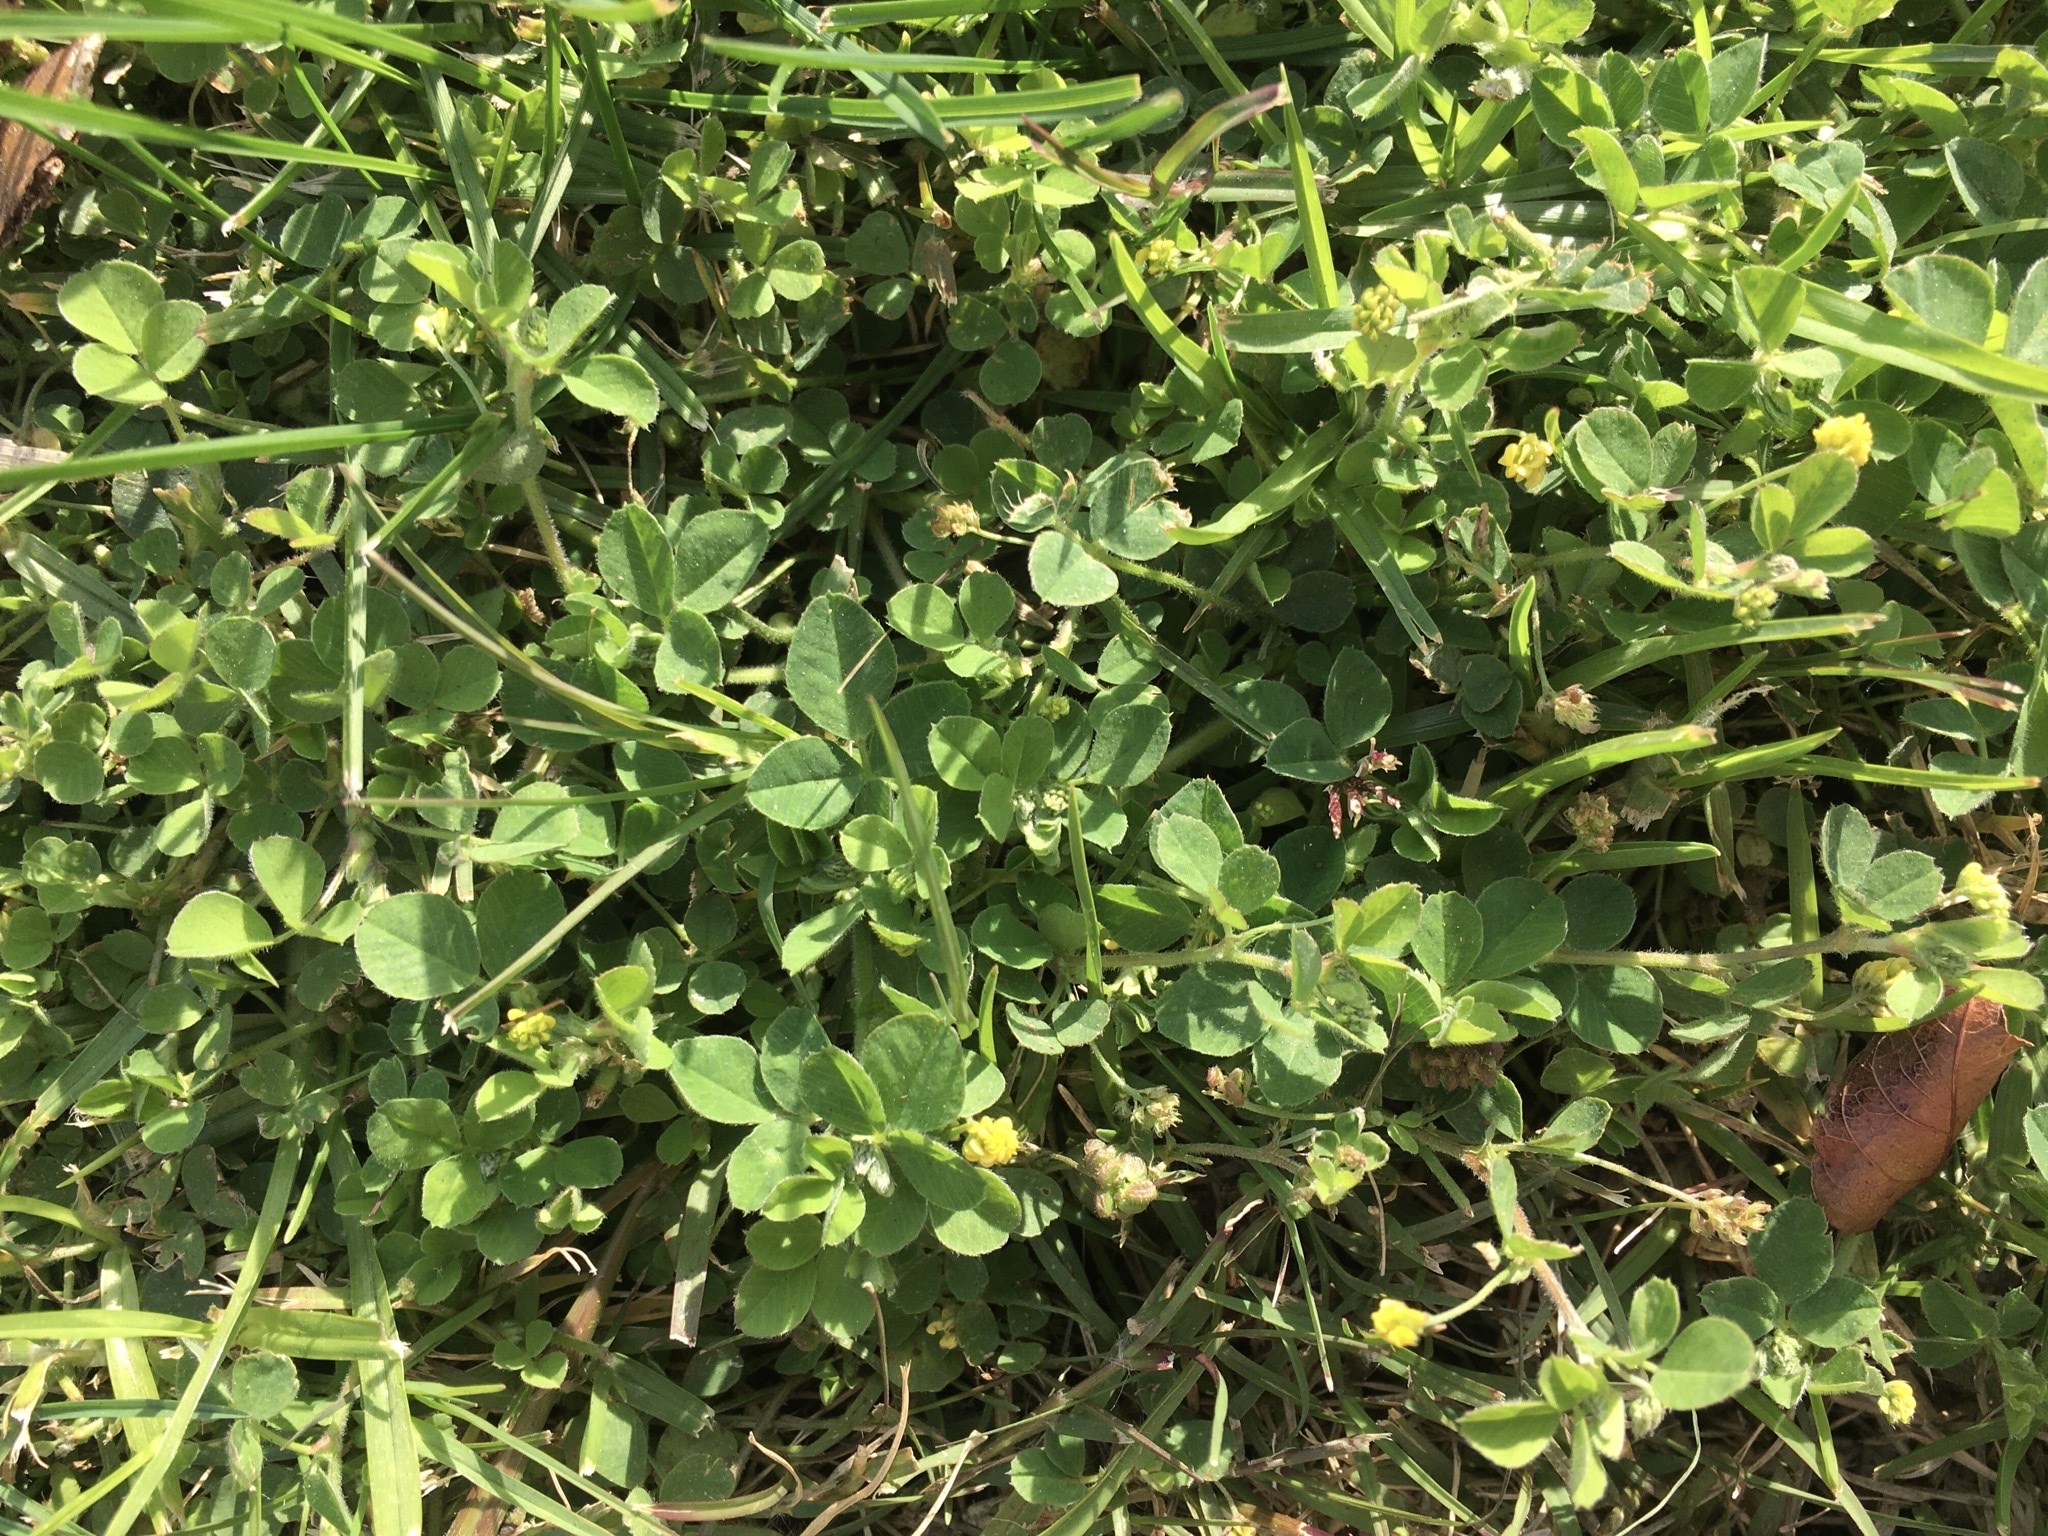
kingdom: Plantae
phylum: Tracheophyta
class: Magnoliopsida
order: Fabales
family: Fabaceae
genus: Medicago
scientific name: Medicago lupulina
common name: Black medick
